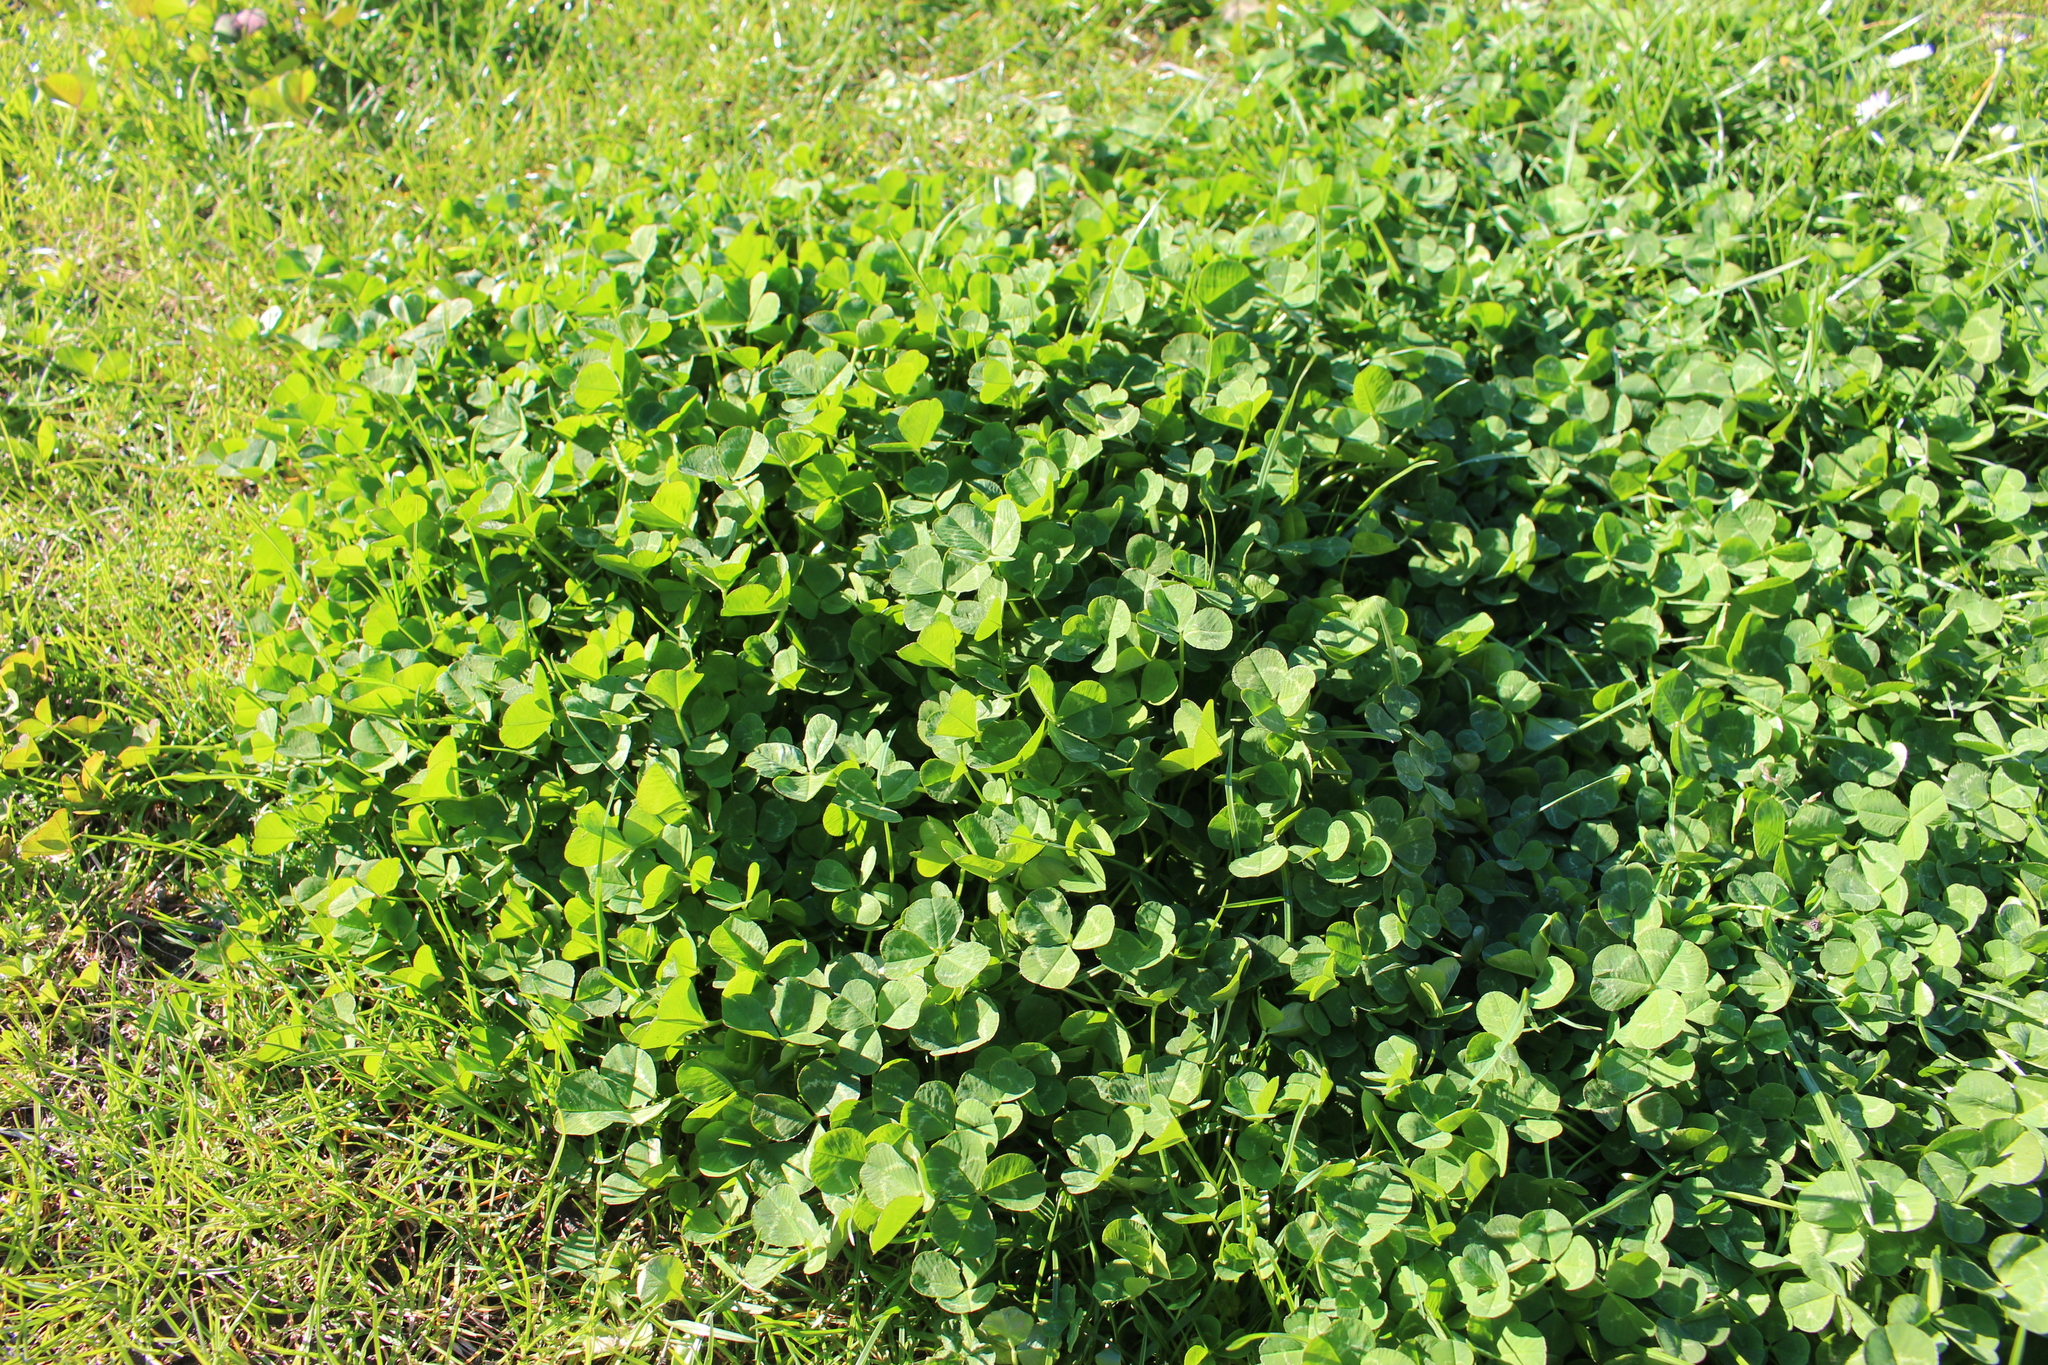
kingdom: Plantae
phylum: Tracheophyta
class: Magnoliopsida
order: Fabales
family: Fabaceae
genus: Trifolium
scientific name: Trifolium repens
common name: White clover
